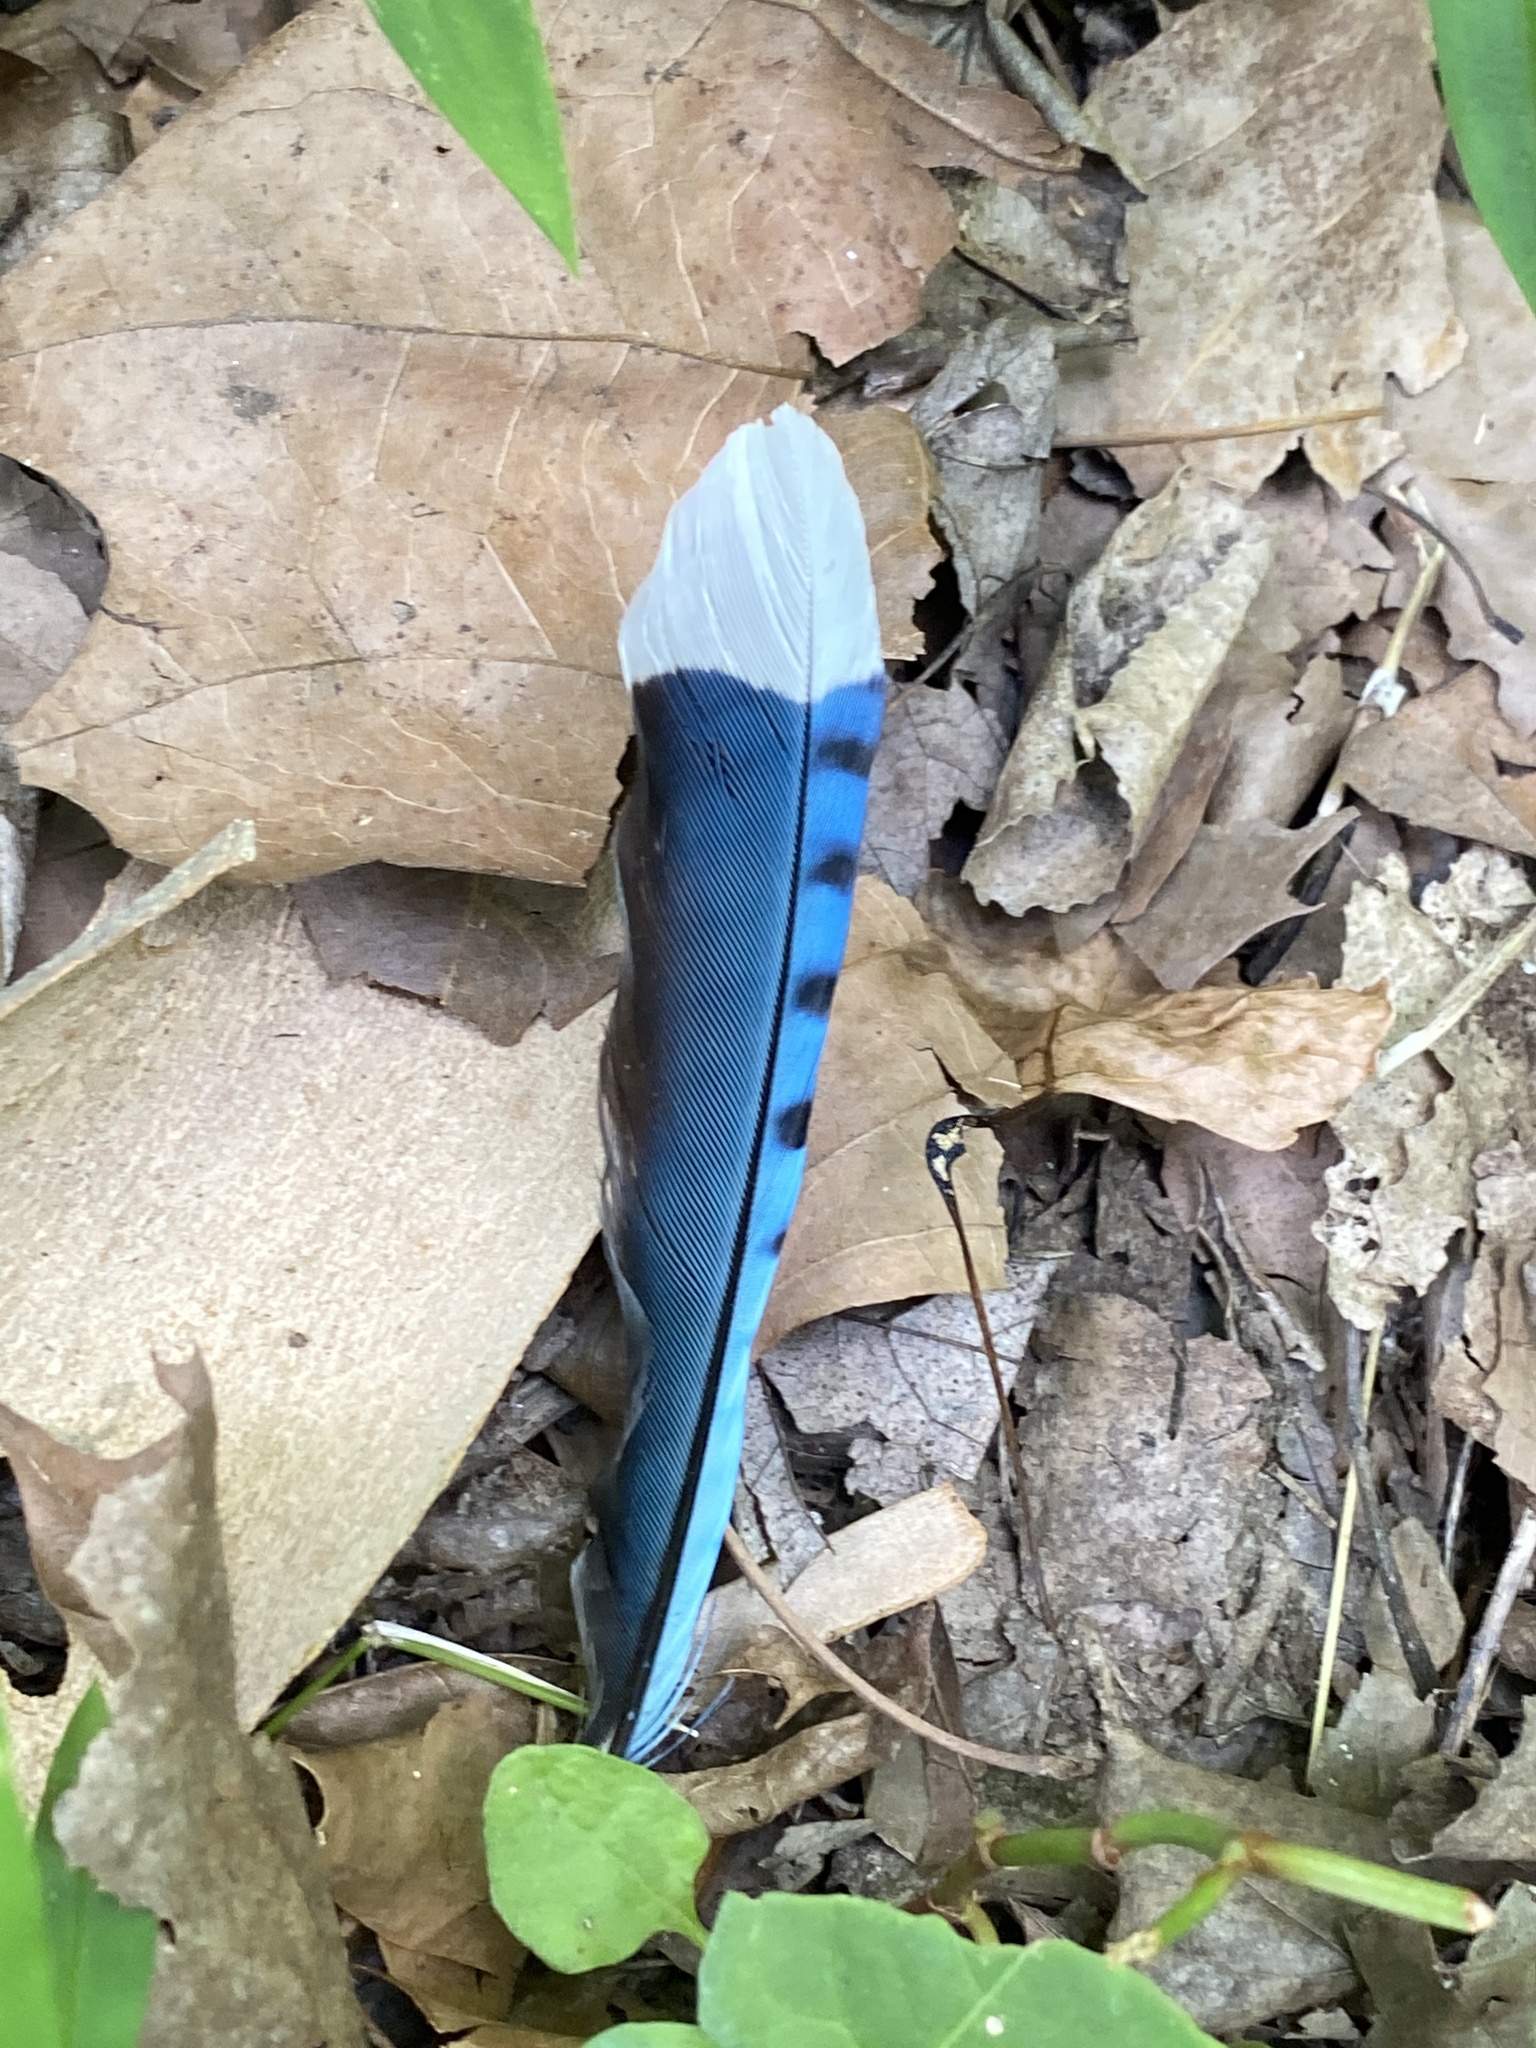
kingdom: Animalia
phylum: Chordata
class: Aves
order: Passeriformes
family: Corvidae
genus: Cyanocitta
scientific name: Cyanocitta cristata
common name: Blue jay
